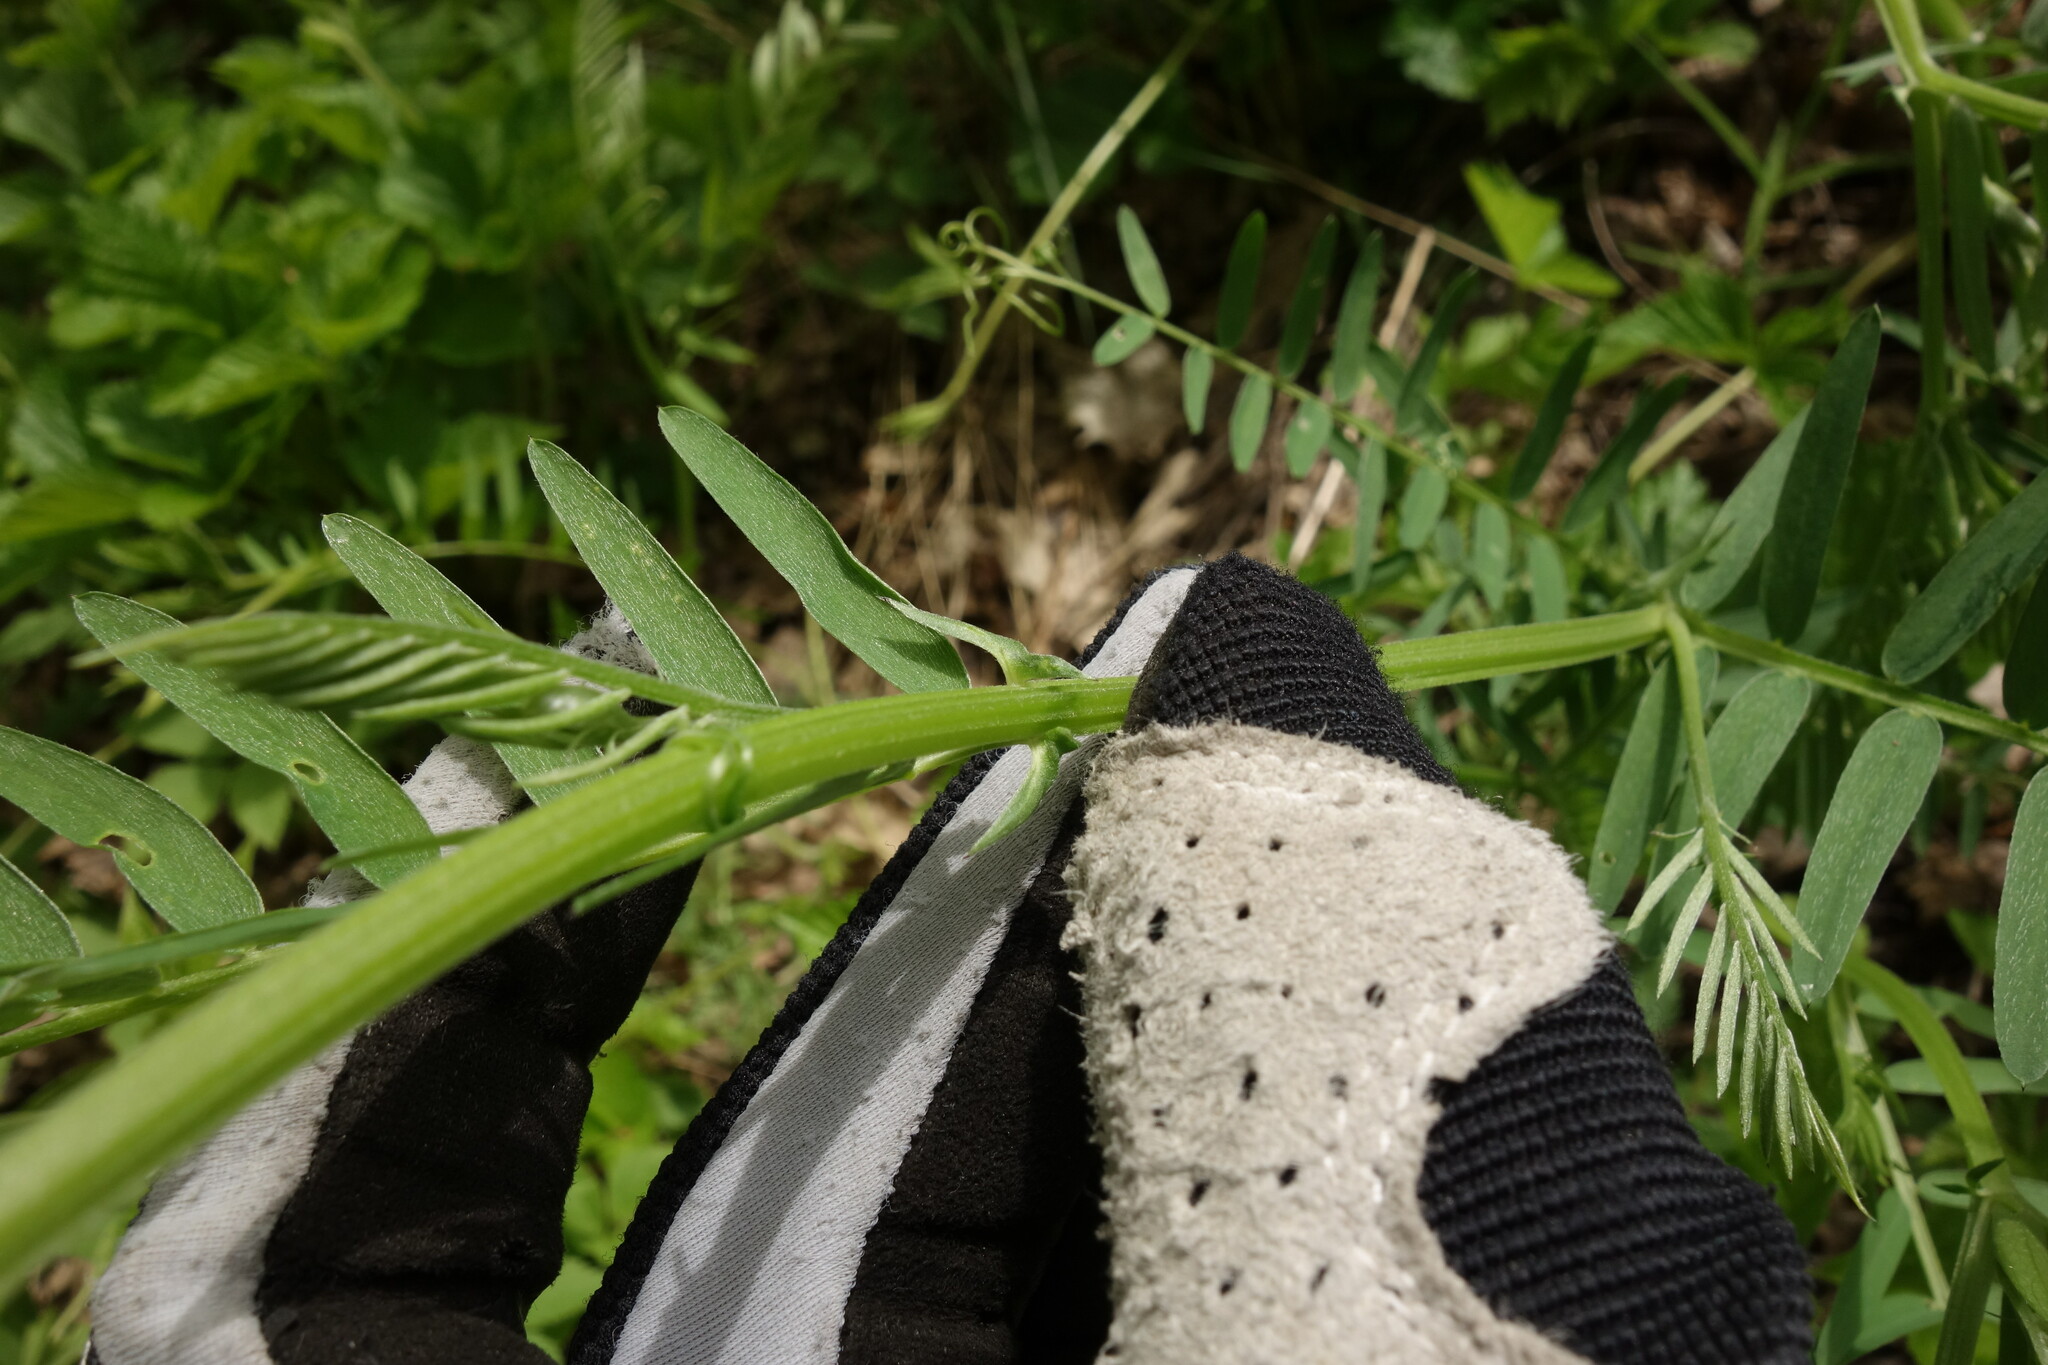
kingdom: Plantae
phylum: Tracheophyta
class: Magnoliopsida
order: Fabales
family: Fabaceae
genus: Vicia
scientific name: Vicia cracca
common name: Bird vetch
